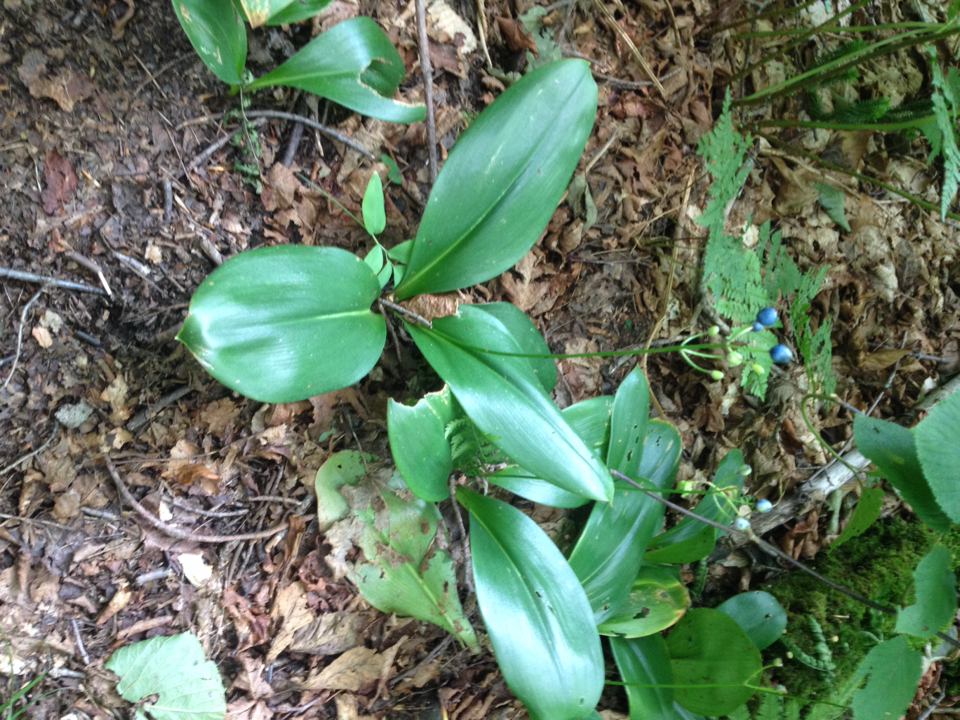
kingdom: Plantae
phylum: Tracheophyta
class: Liliopsida
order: Liliales
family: Liliaceae
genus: Clintonia
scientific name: Clintonia borealis
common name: Yellow clintonia
